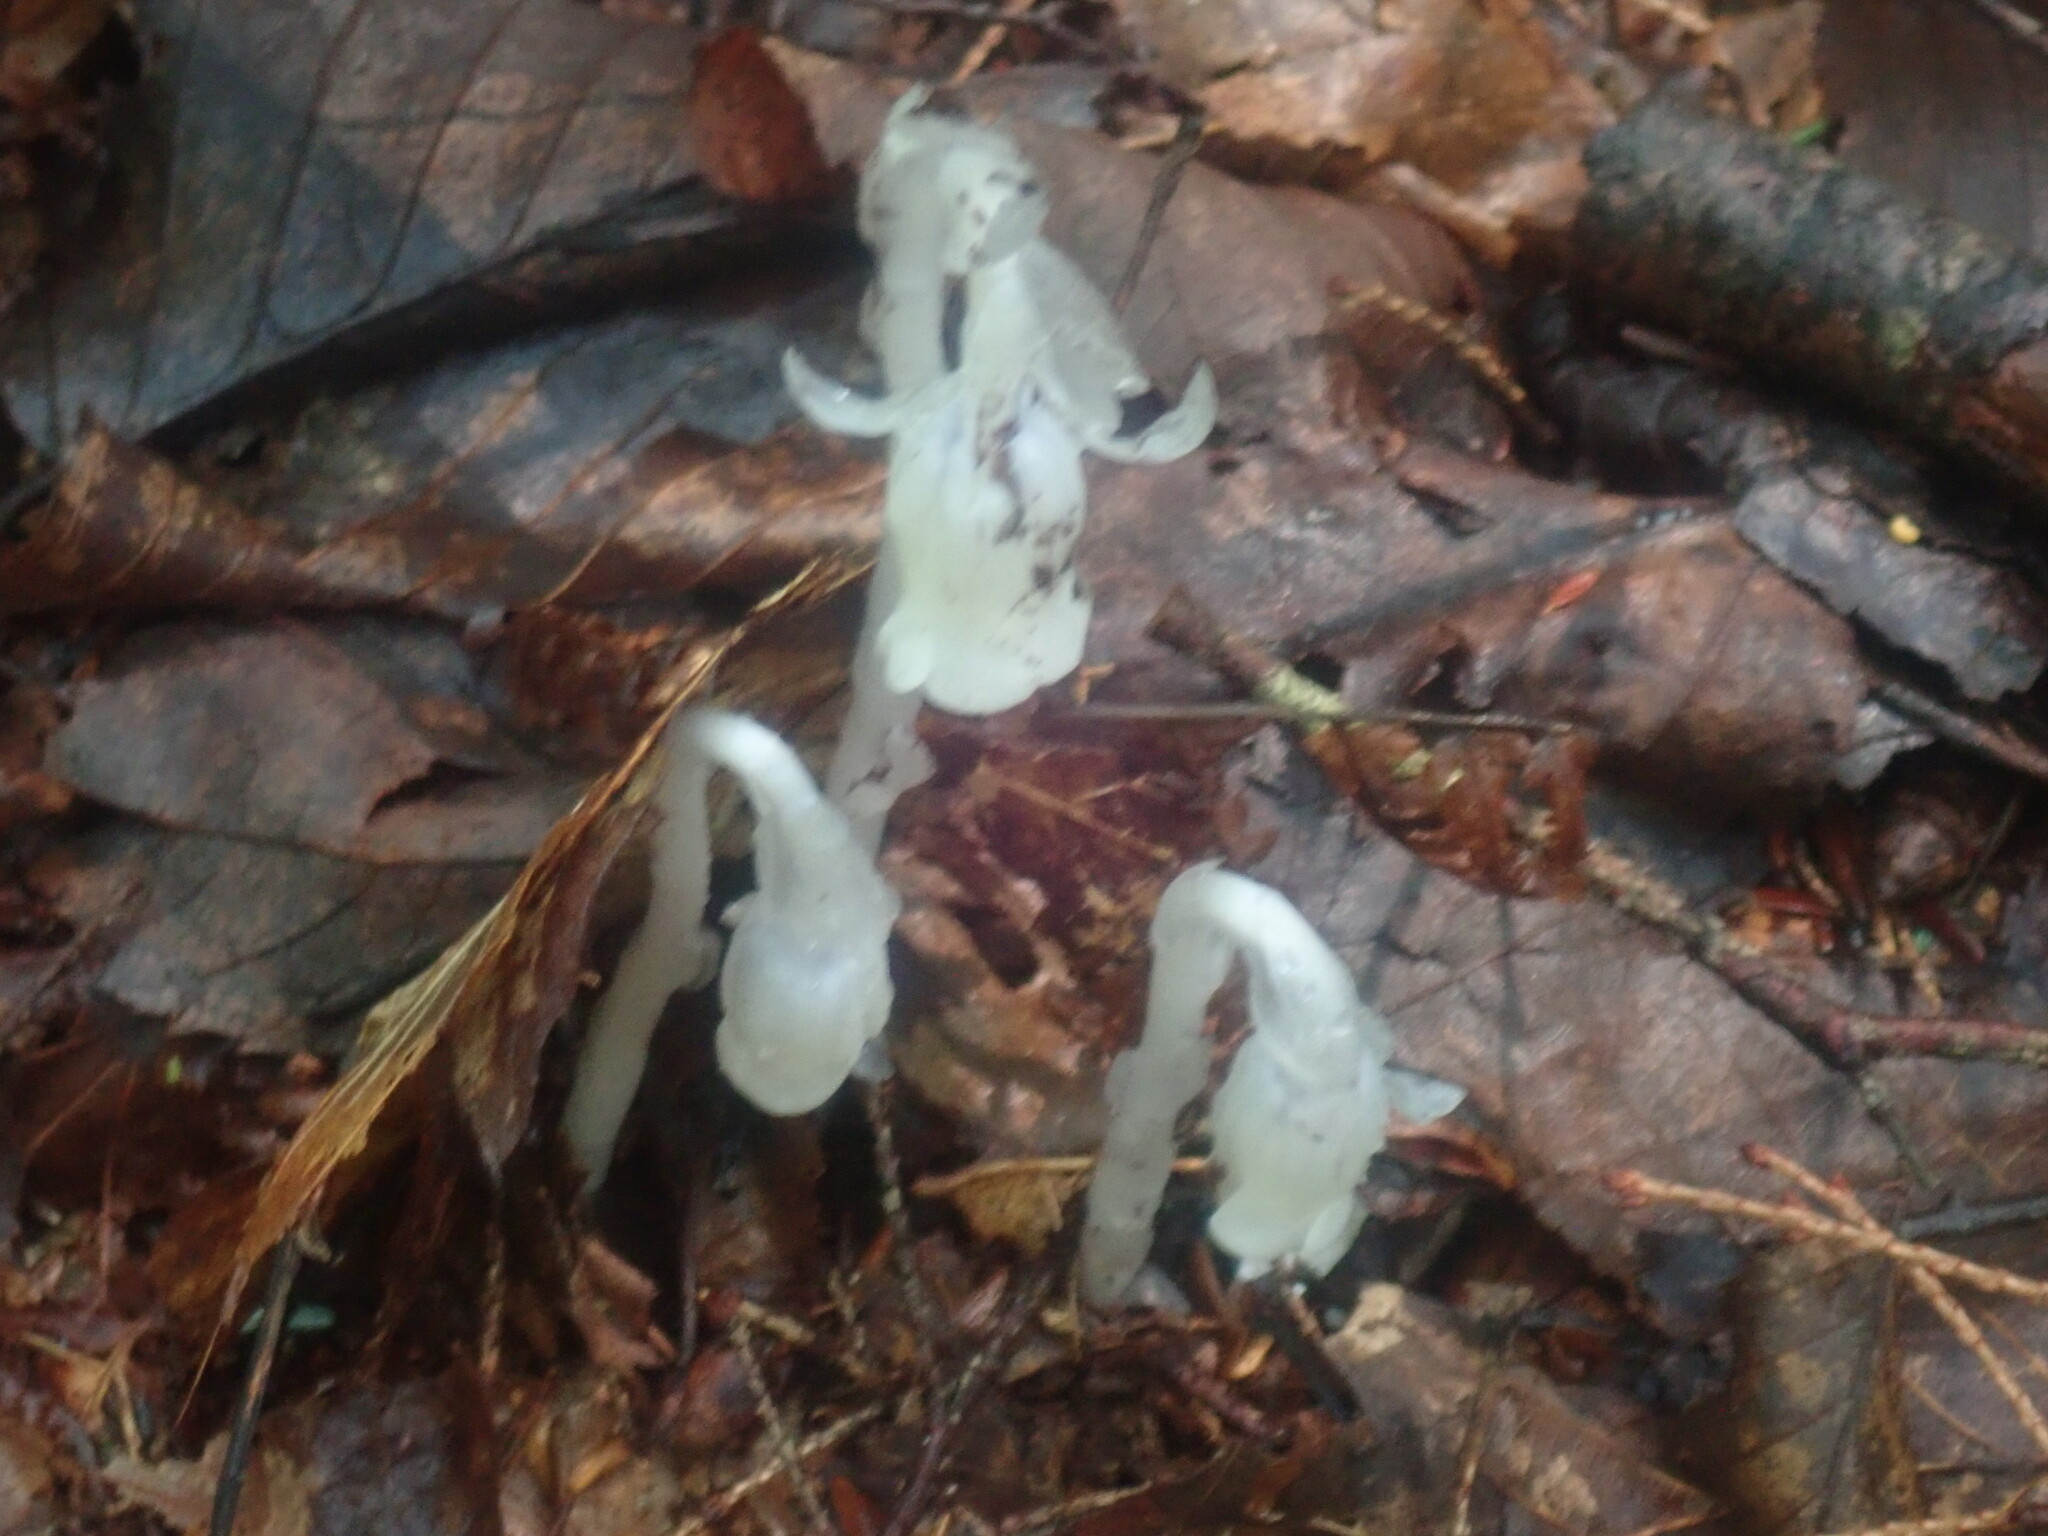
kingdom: Plantae
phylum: Tracheophyta
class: Magnoliopsida
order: Ericales
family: Ericaceae
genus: Monotropa
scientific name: Monotropa uniflora
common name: Convulsion root
